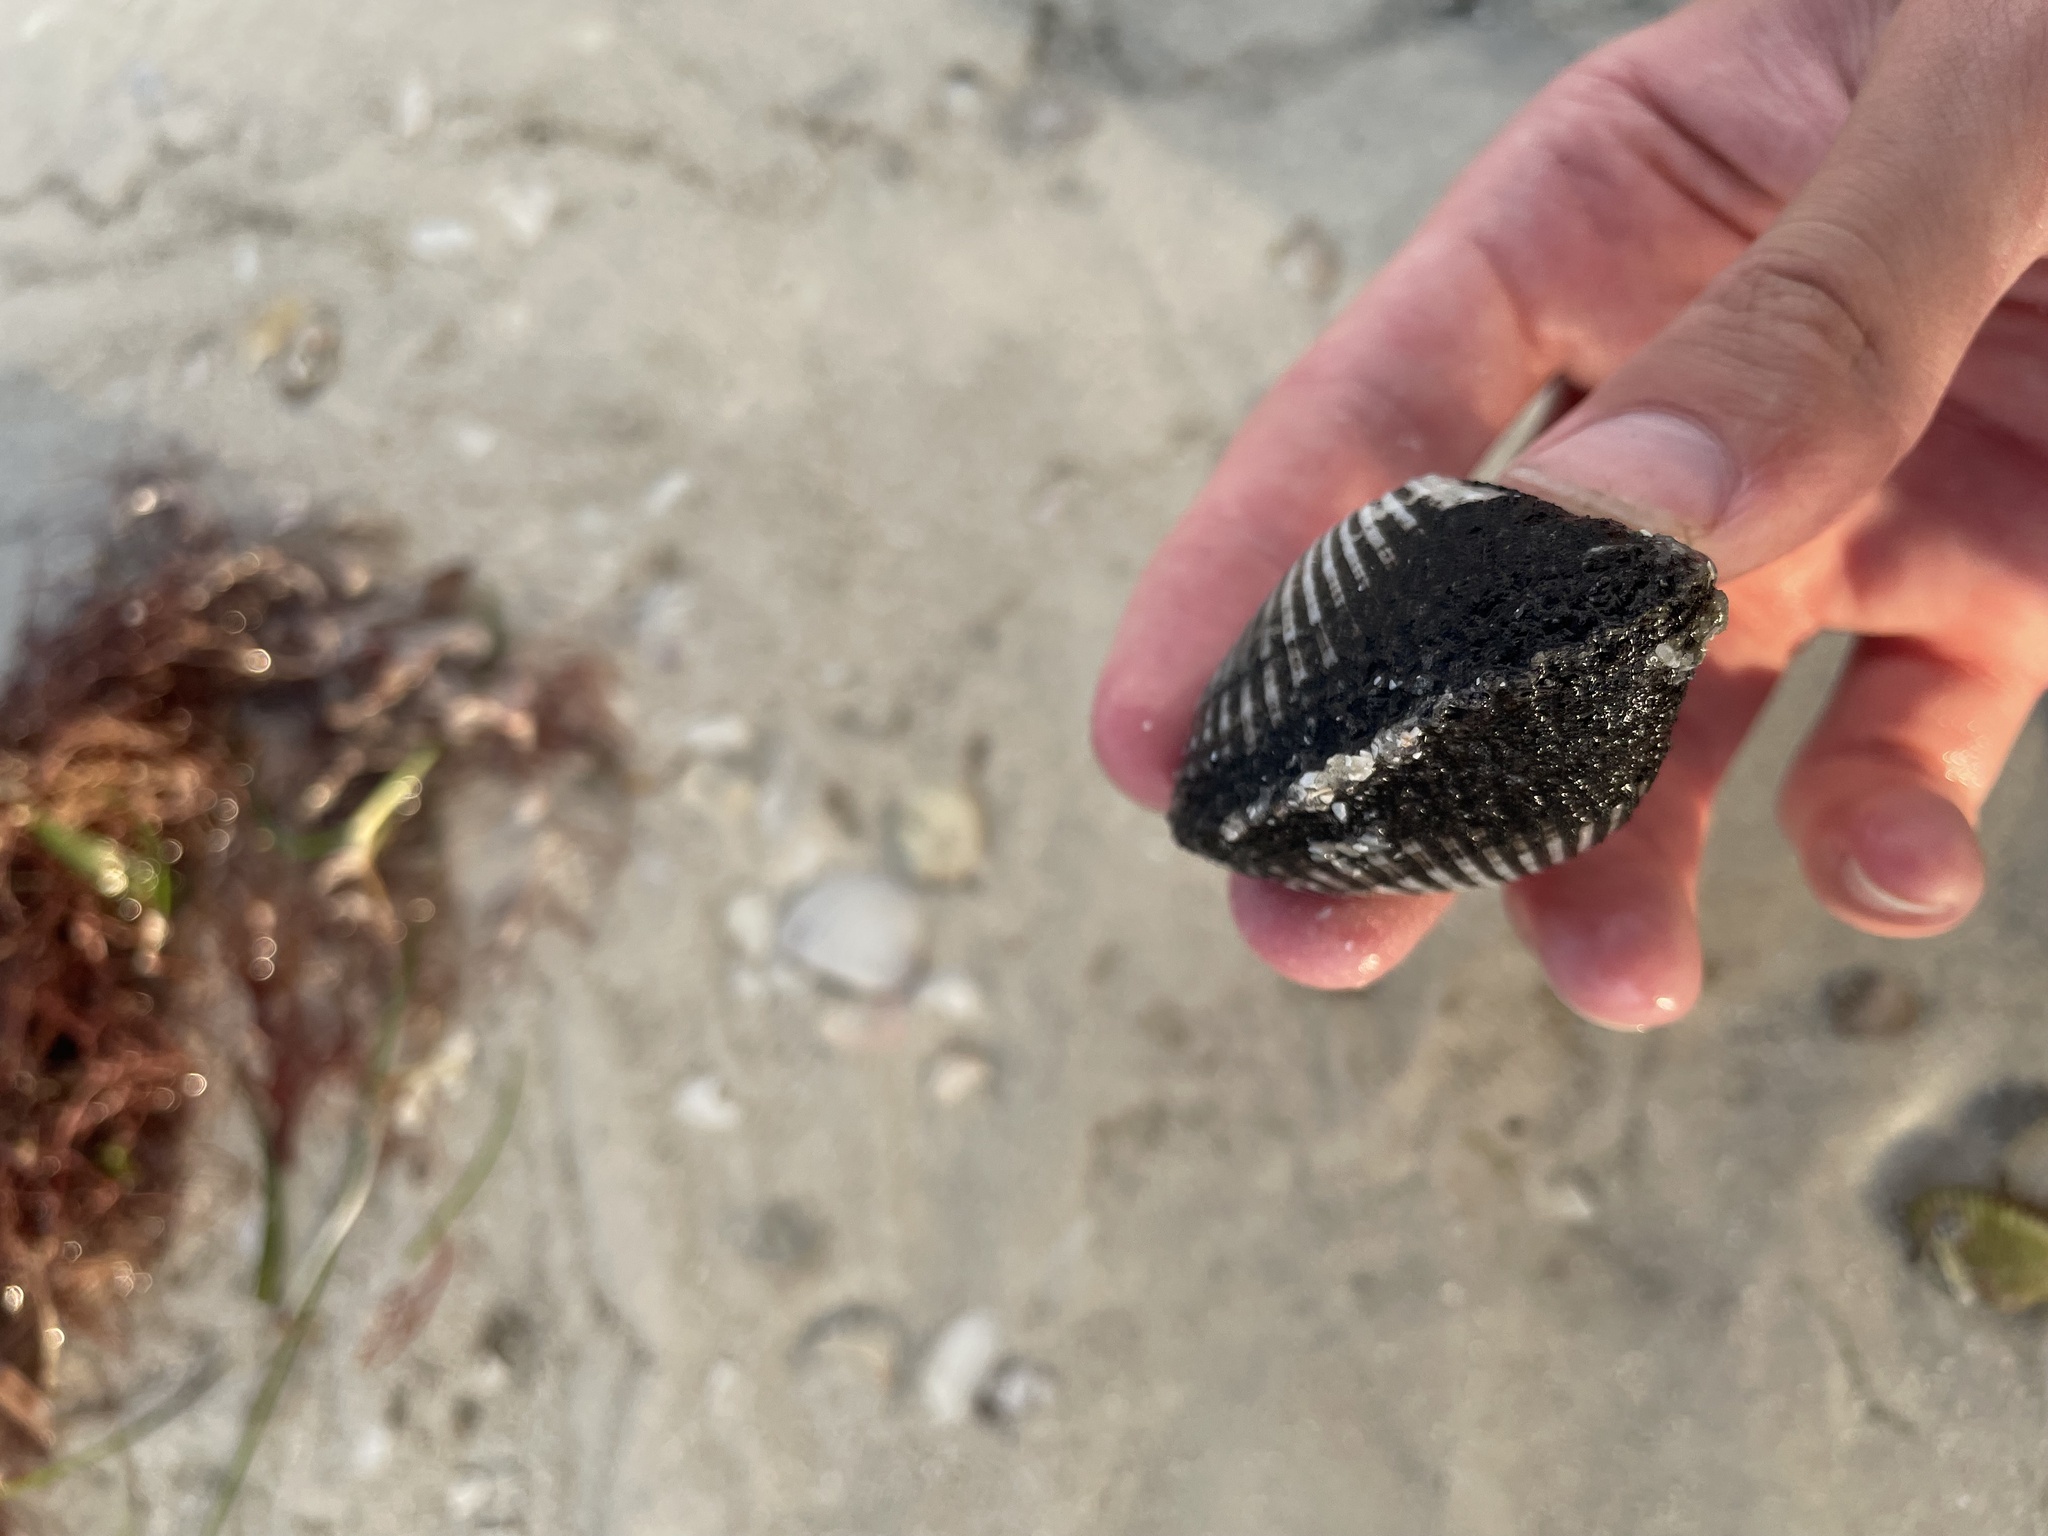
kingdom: Animalia
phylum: Mollusca
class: Bivalvia
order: Arcida
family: Noetiidae
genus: Noetia
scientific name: Noetia ponderosa
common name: Ponderous ark
